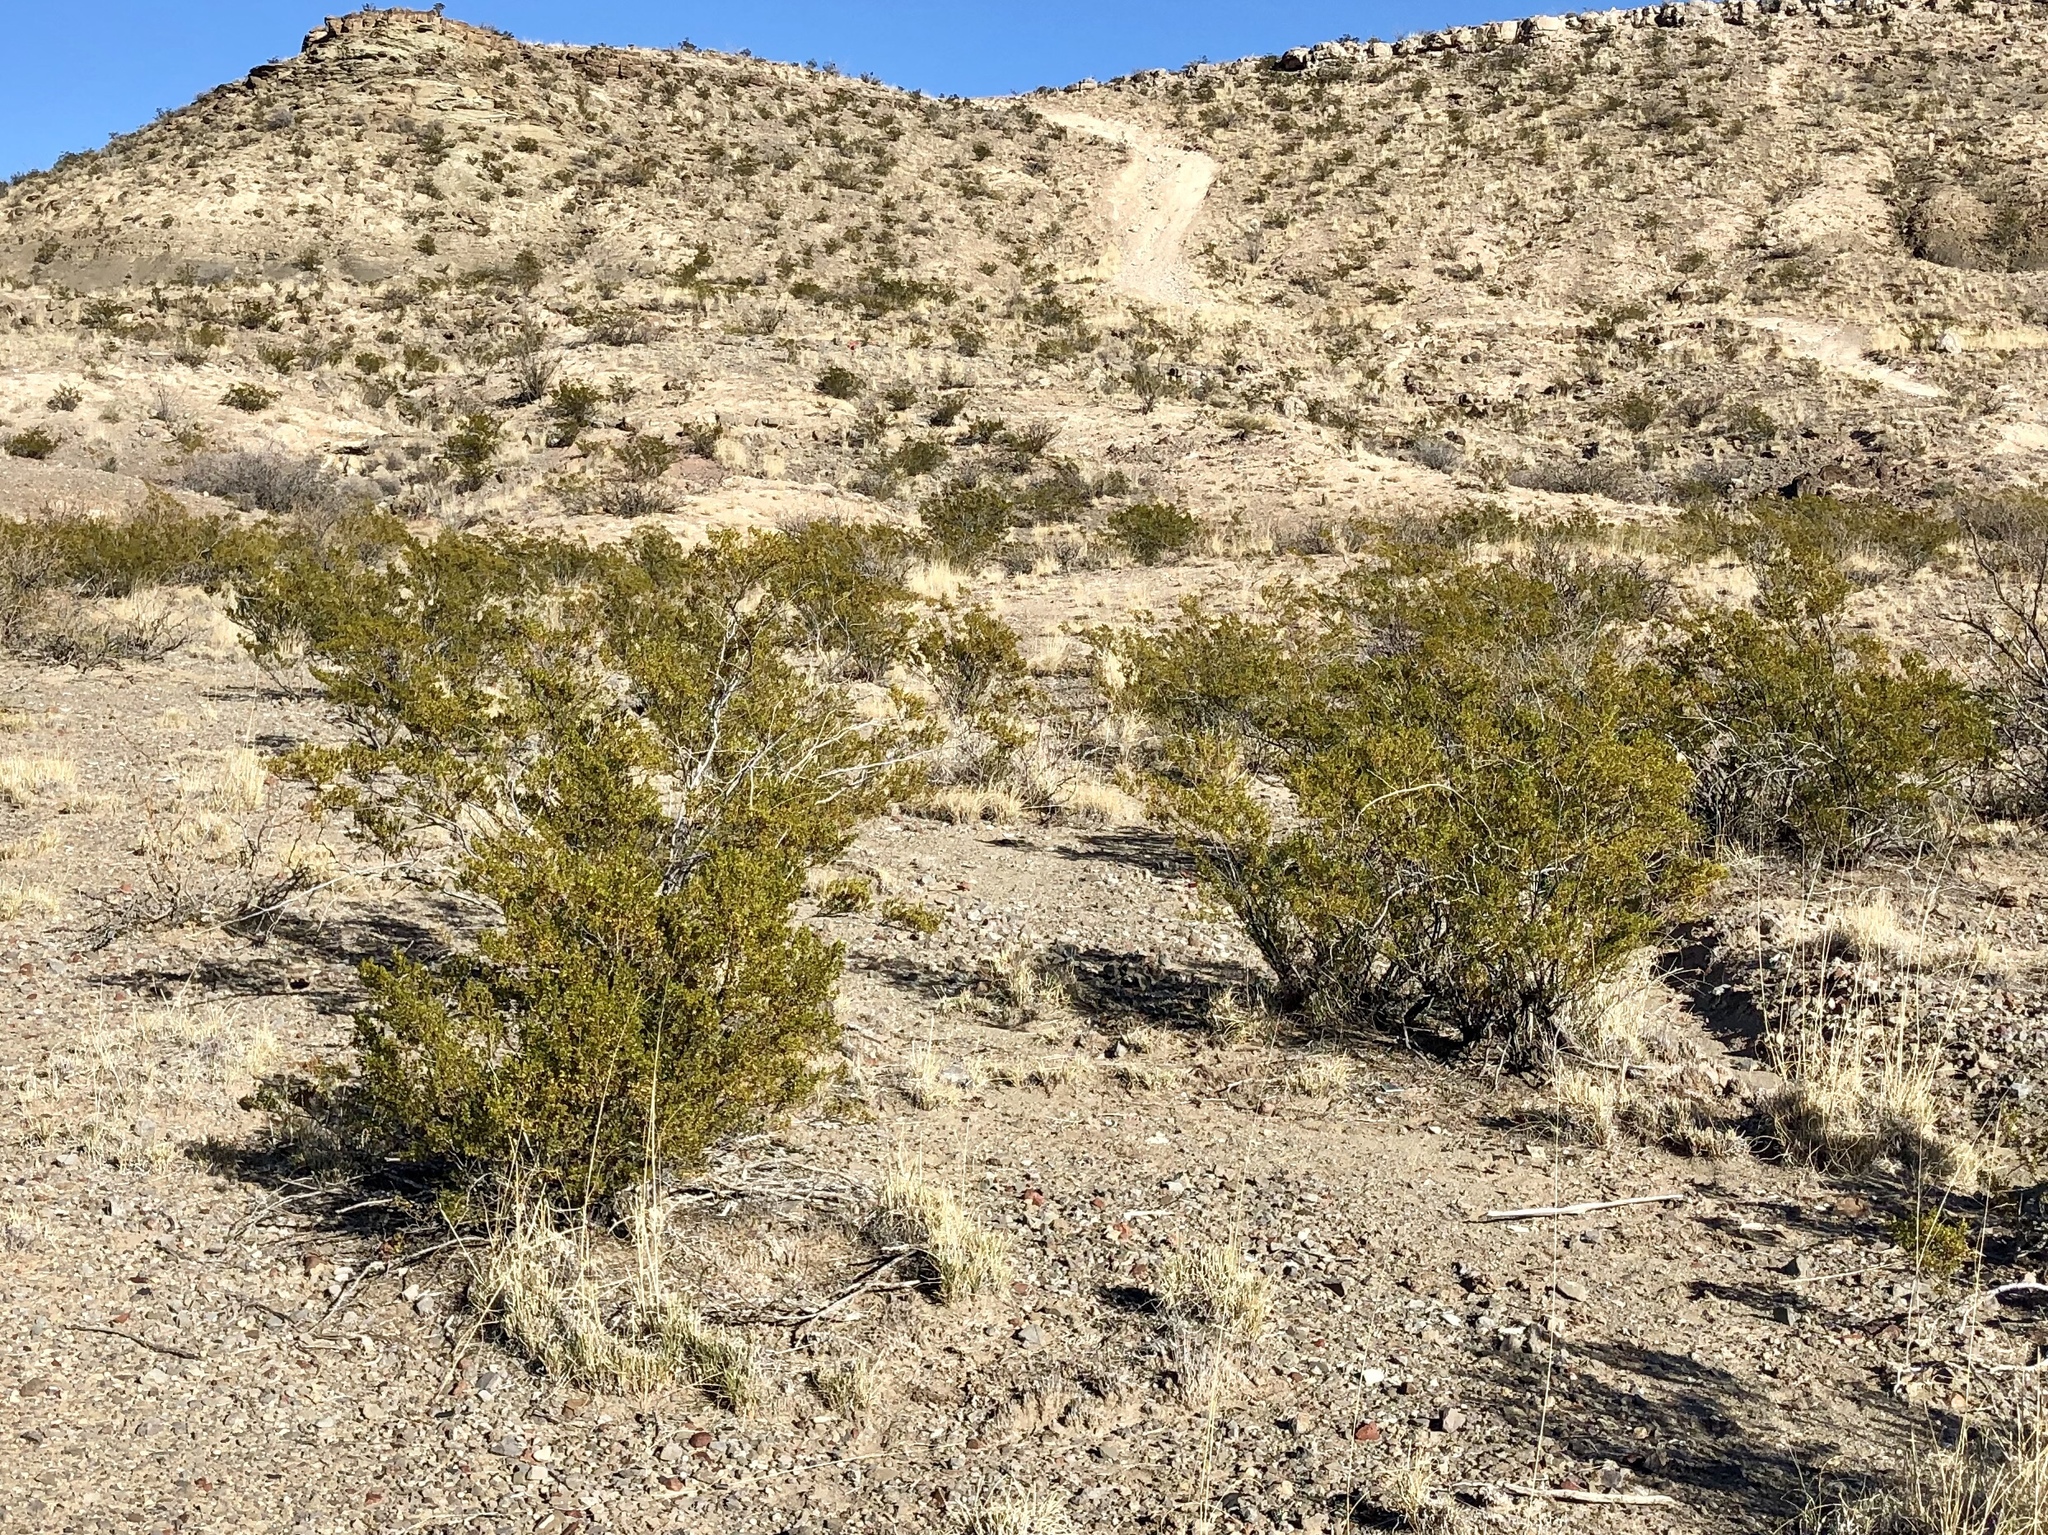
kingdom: Plantae
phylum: Tracheophyta
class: Magnoliopsida
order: Zygophyllales
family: Zygophyllaceae
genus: Larrea
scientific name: Larrea tridentata
